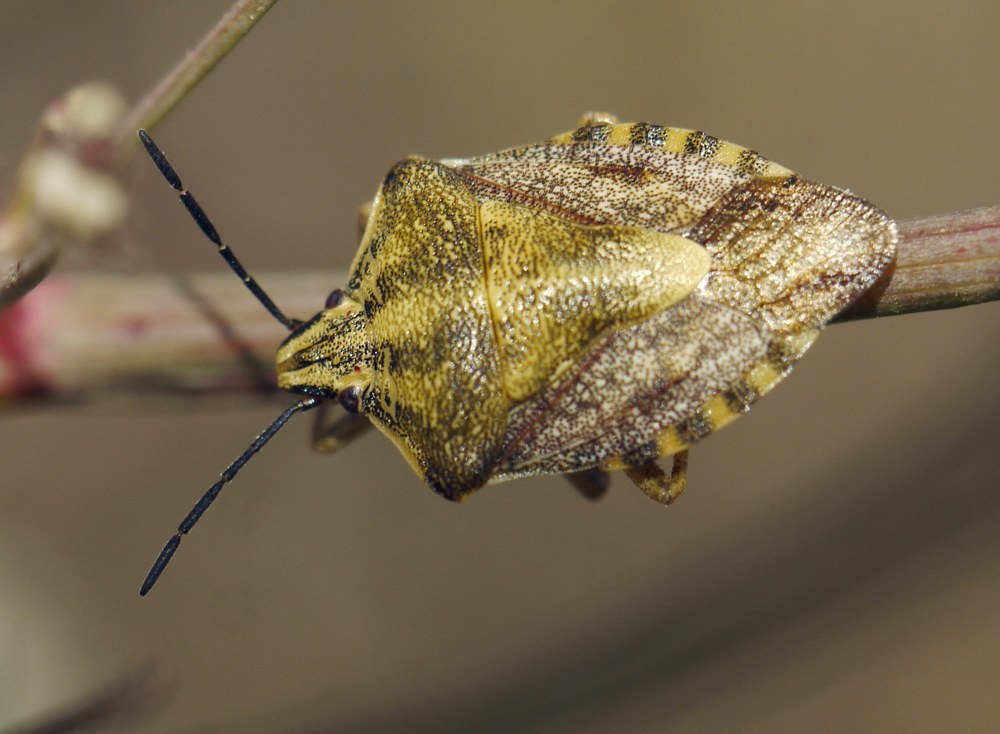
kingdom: Animalia
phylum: Arthropoda
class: Insecta
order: Hemiptera
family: Pentatomidae
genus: Carpocoris
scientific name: Carpocoris purpureipennis
